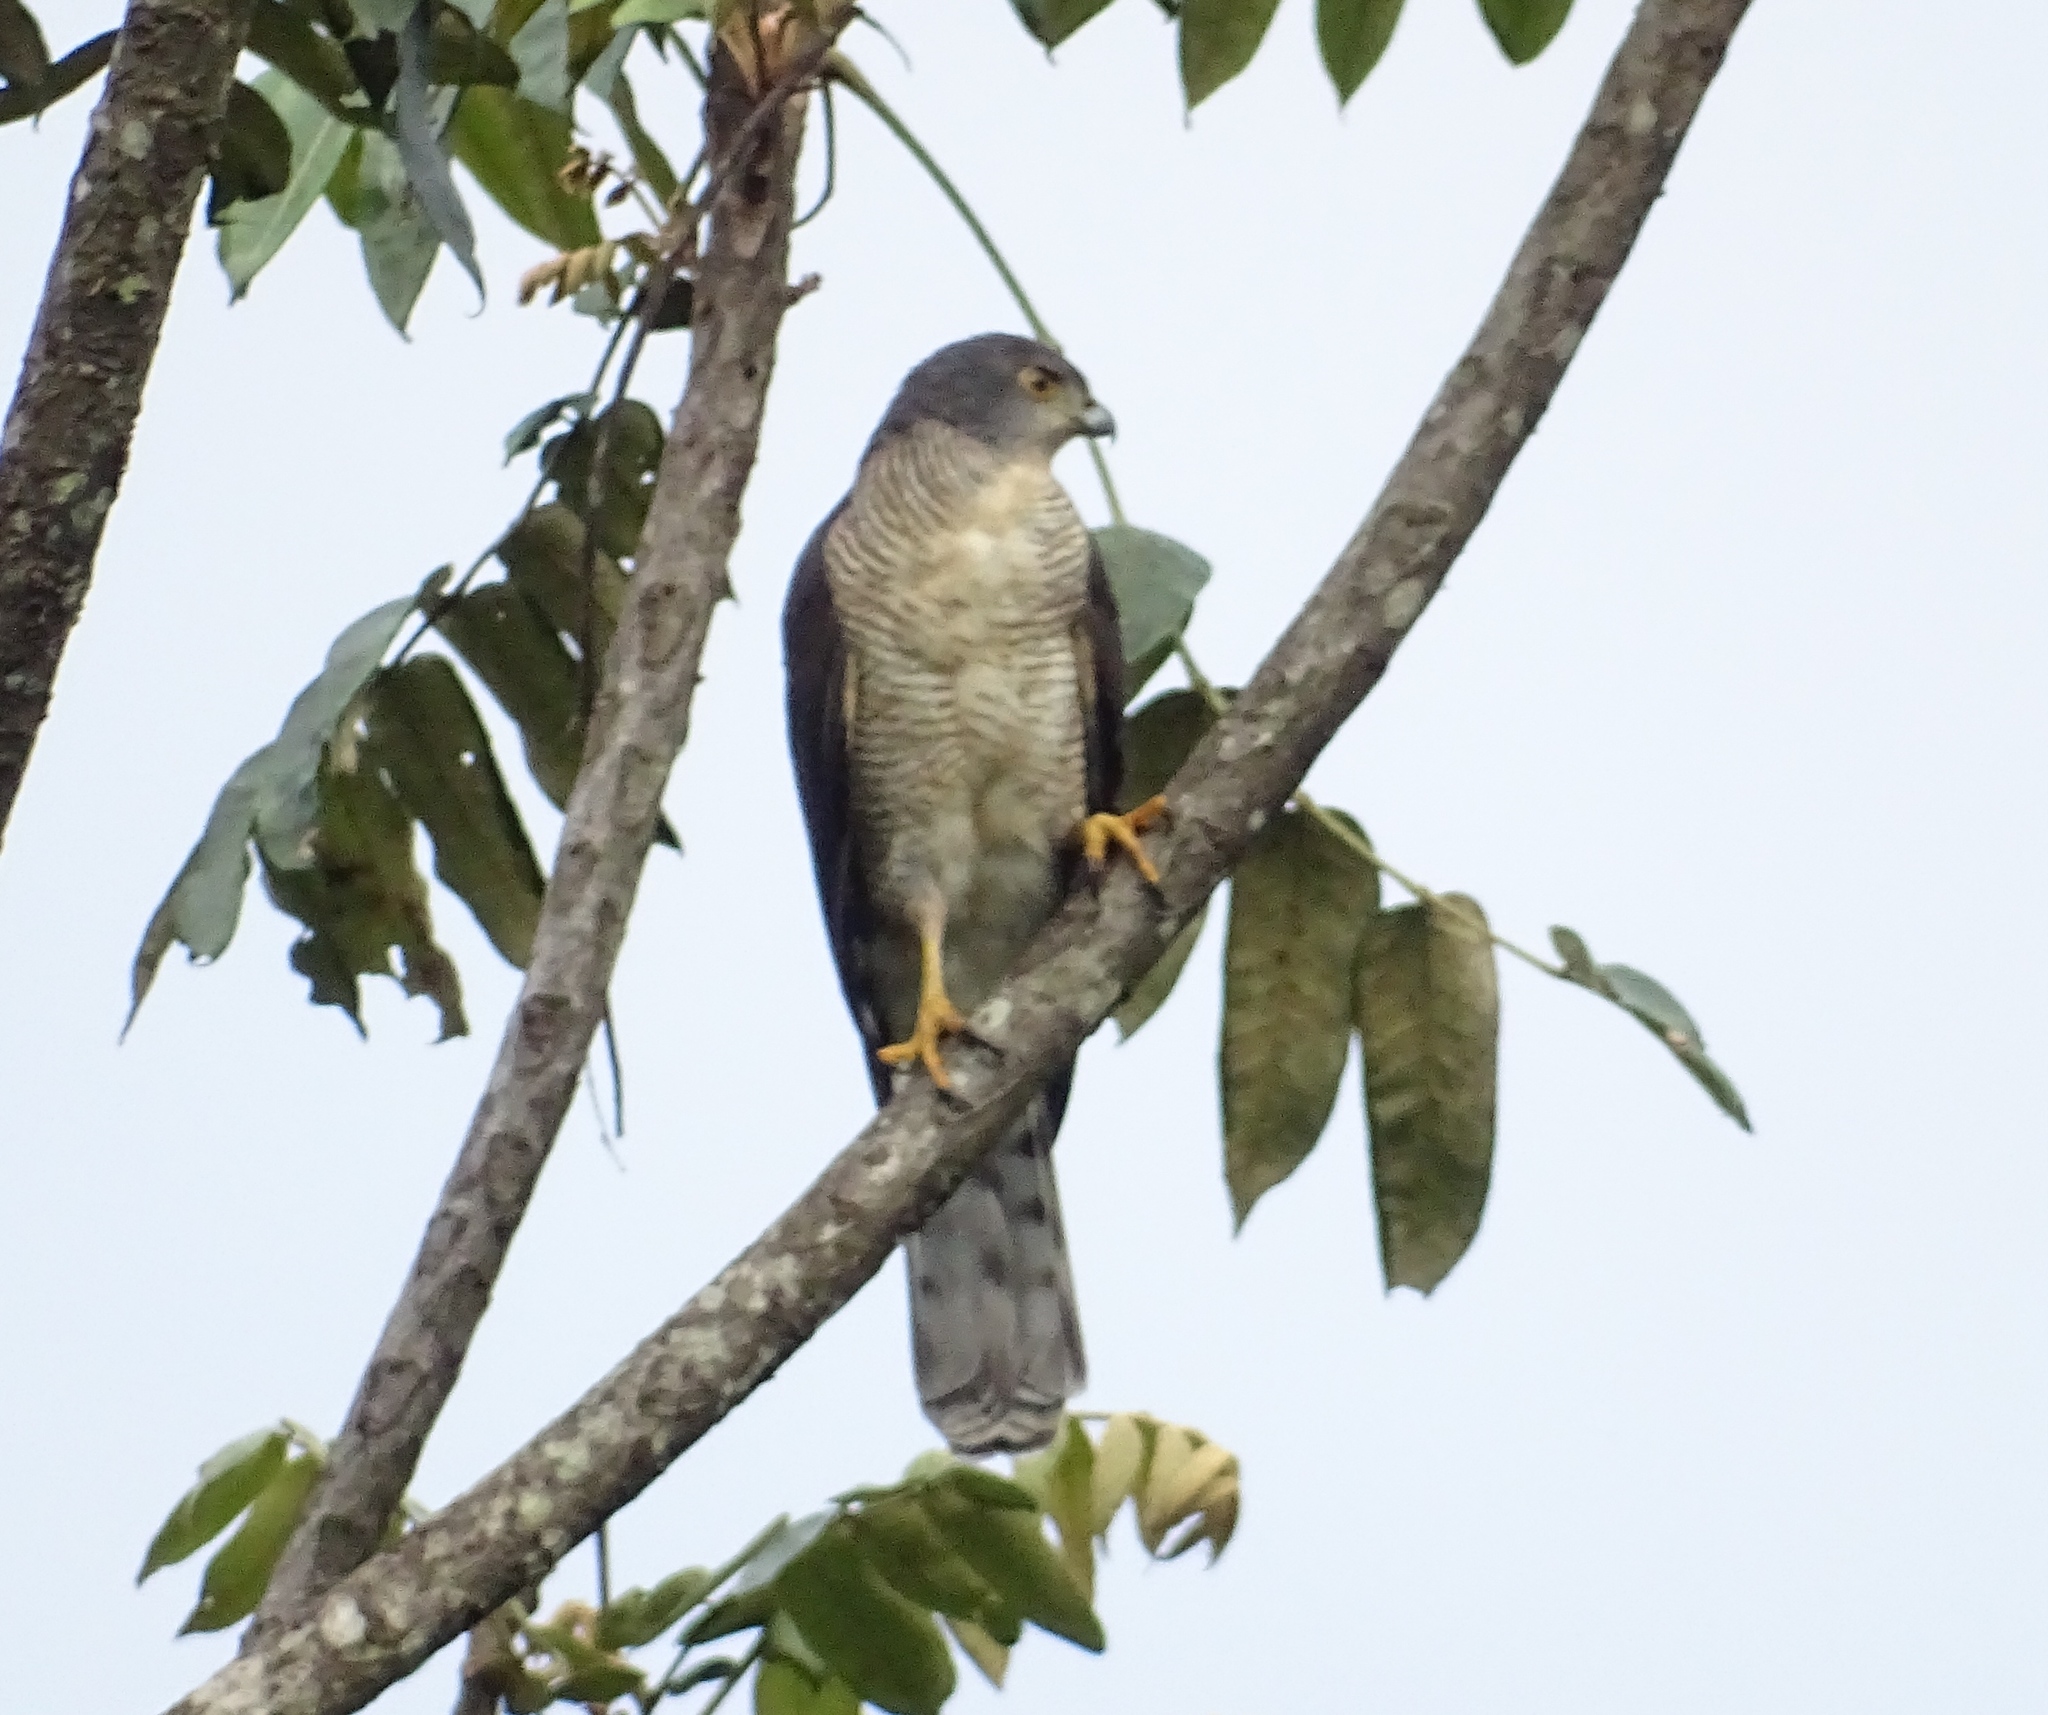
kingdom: Animalia
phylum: Chordata
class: Aves
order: Accipitriformes
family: Accipitridae
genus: Accipiter
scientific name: Accipiter tachiro
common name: African goshawk
